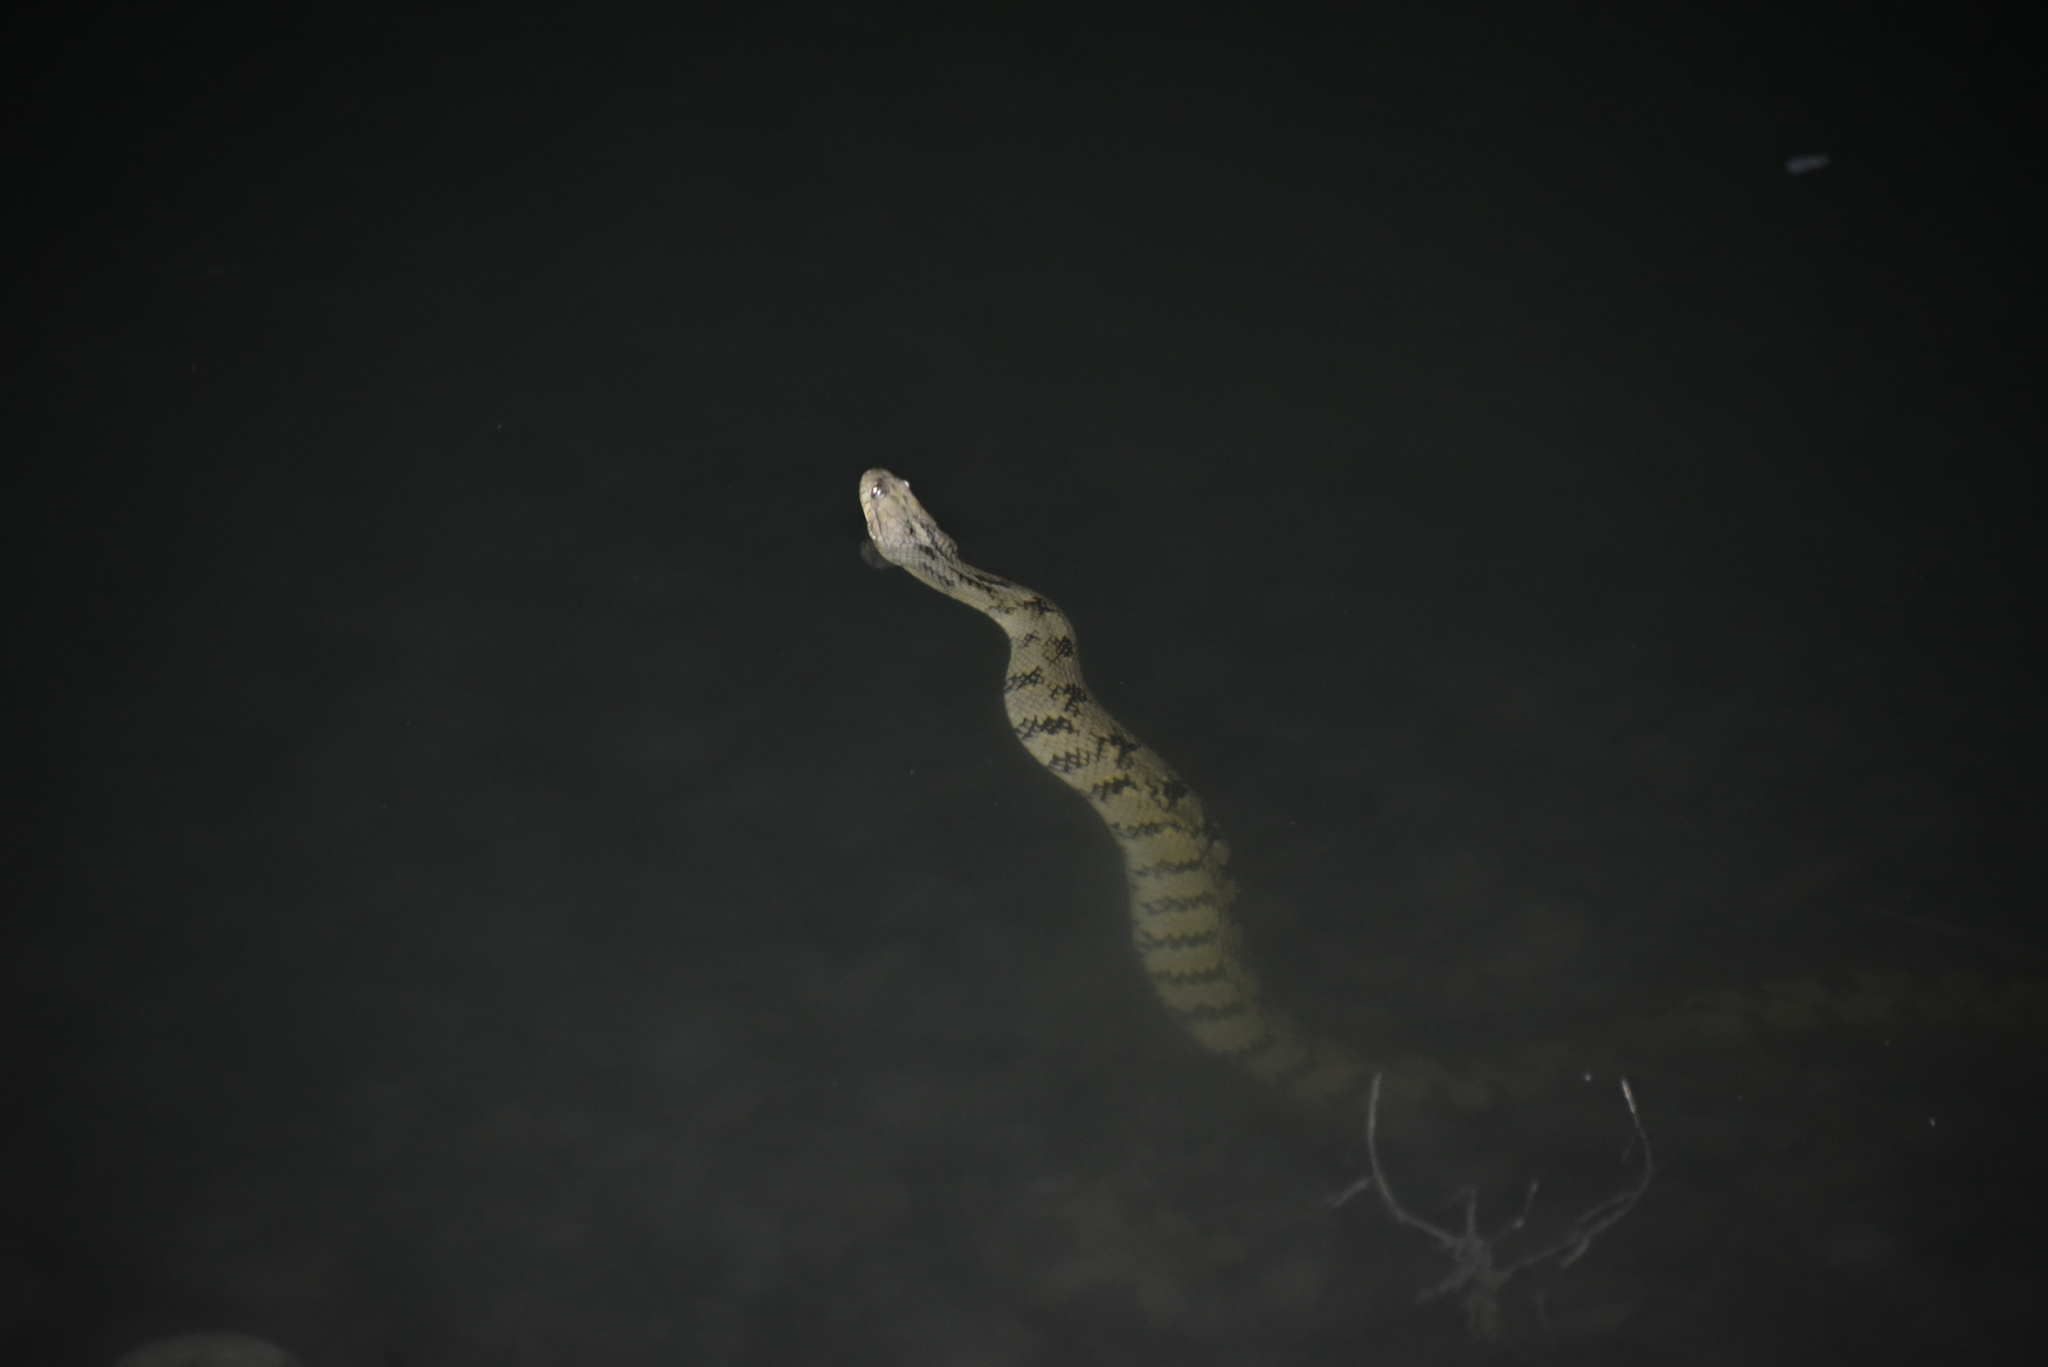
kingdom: Animalia
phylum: Chordata
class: Squamata
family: Colubridae
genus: Nerodia
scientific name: Nerodia rhombifer
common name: Diamondback water snake
